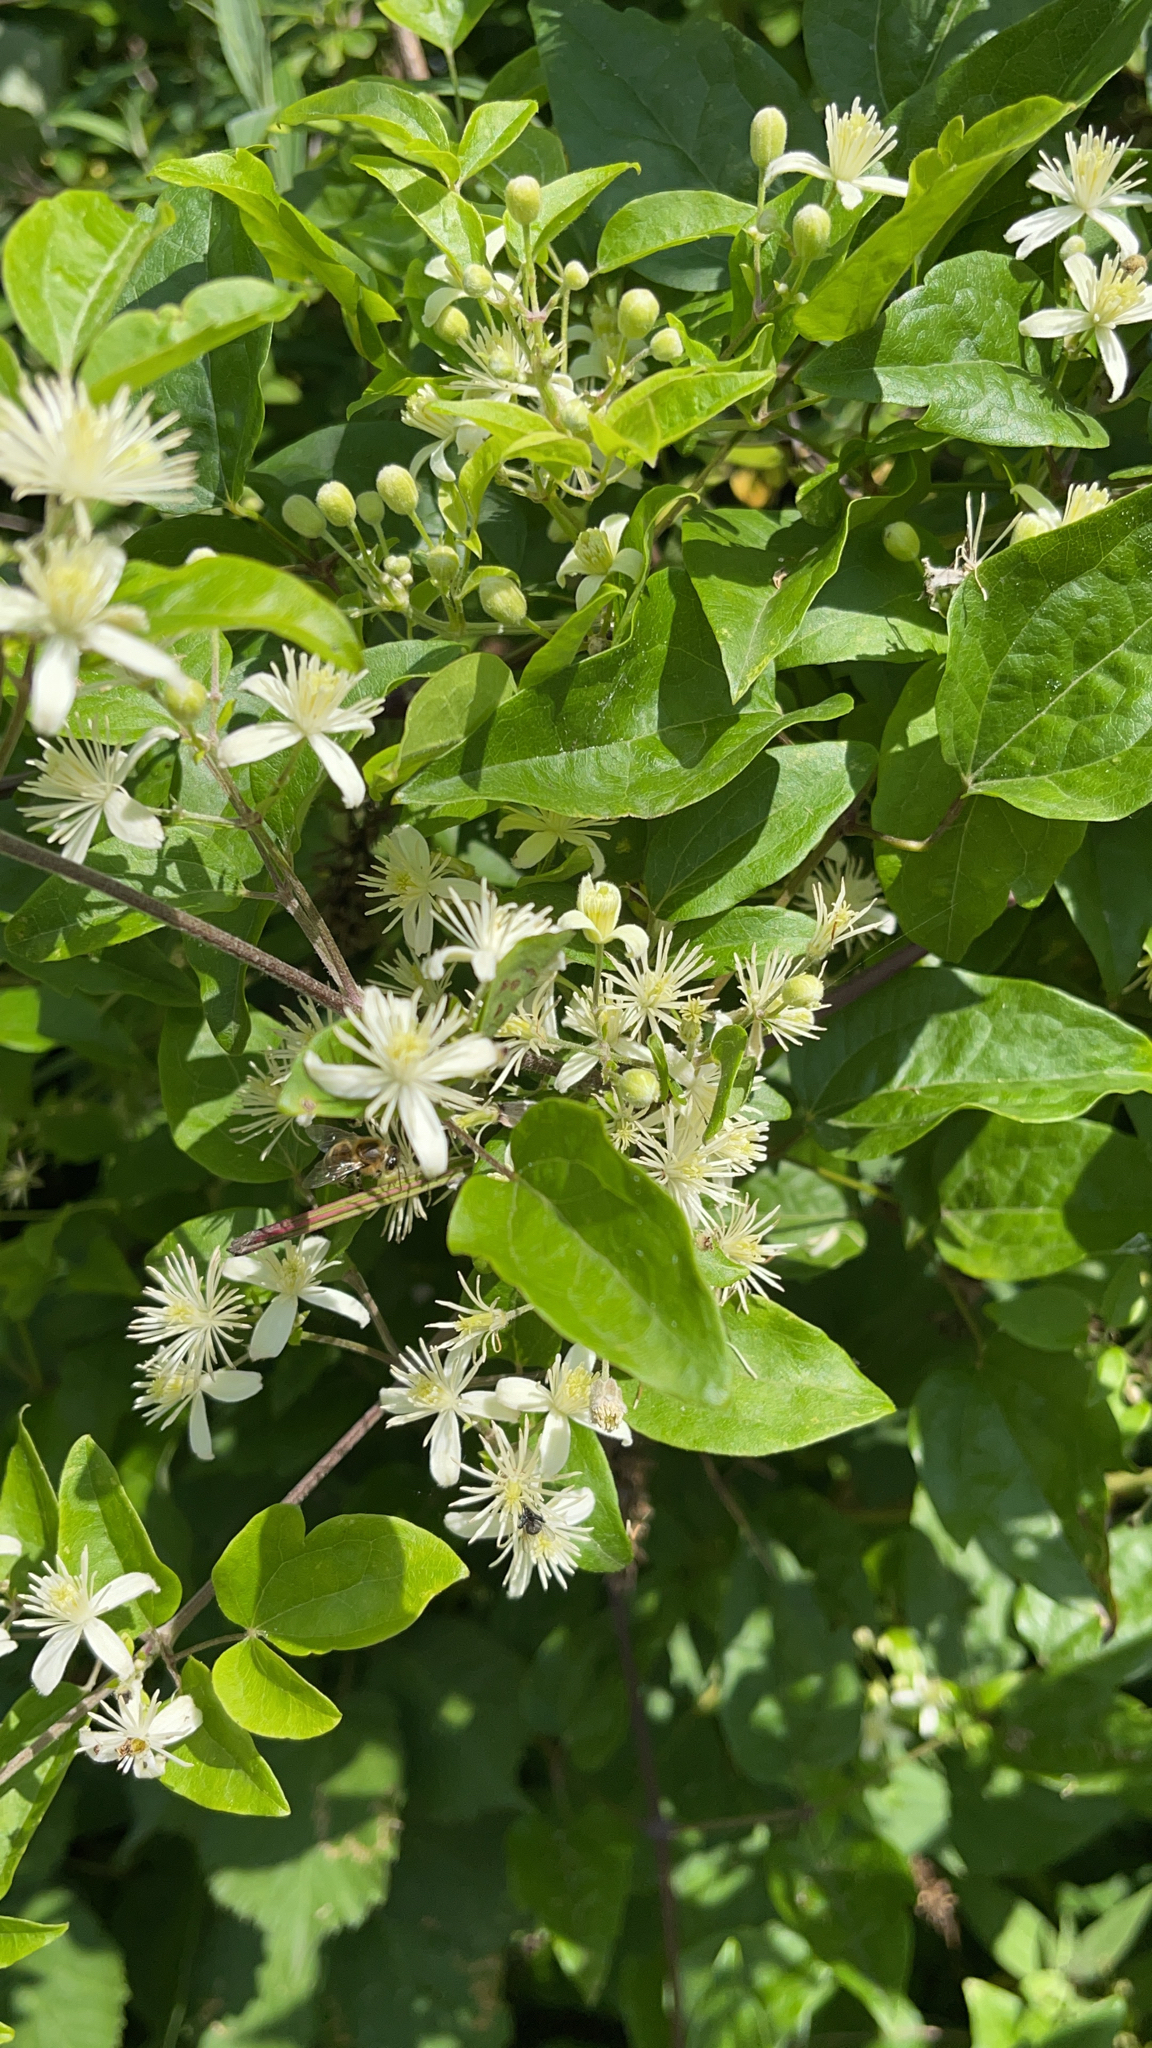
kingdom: Plantae
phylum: Tracheophyta
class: Magnoliopsida
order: Ranunculales
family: Ranunculaceae
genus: Clematis
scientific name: Clematis vitalba
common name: Evergreen clematis
